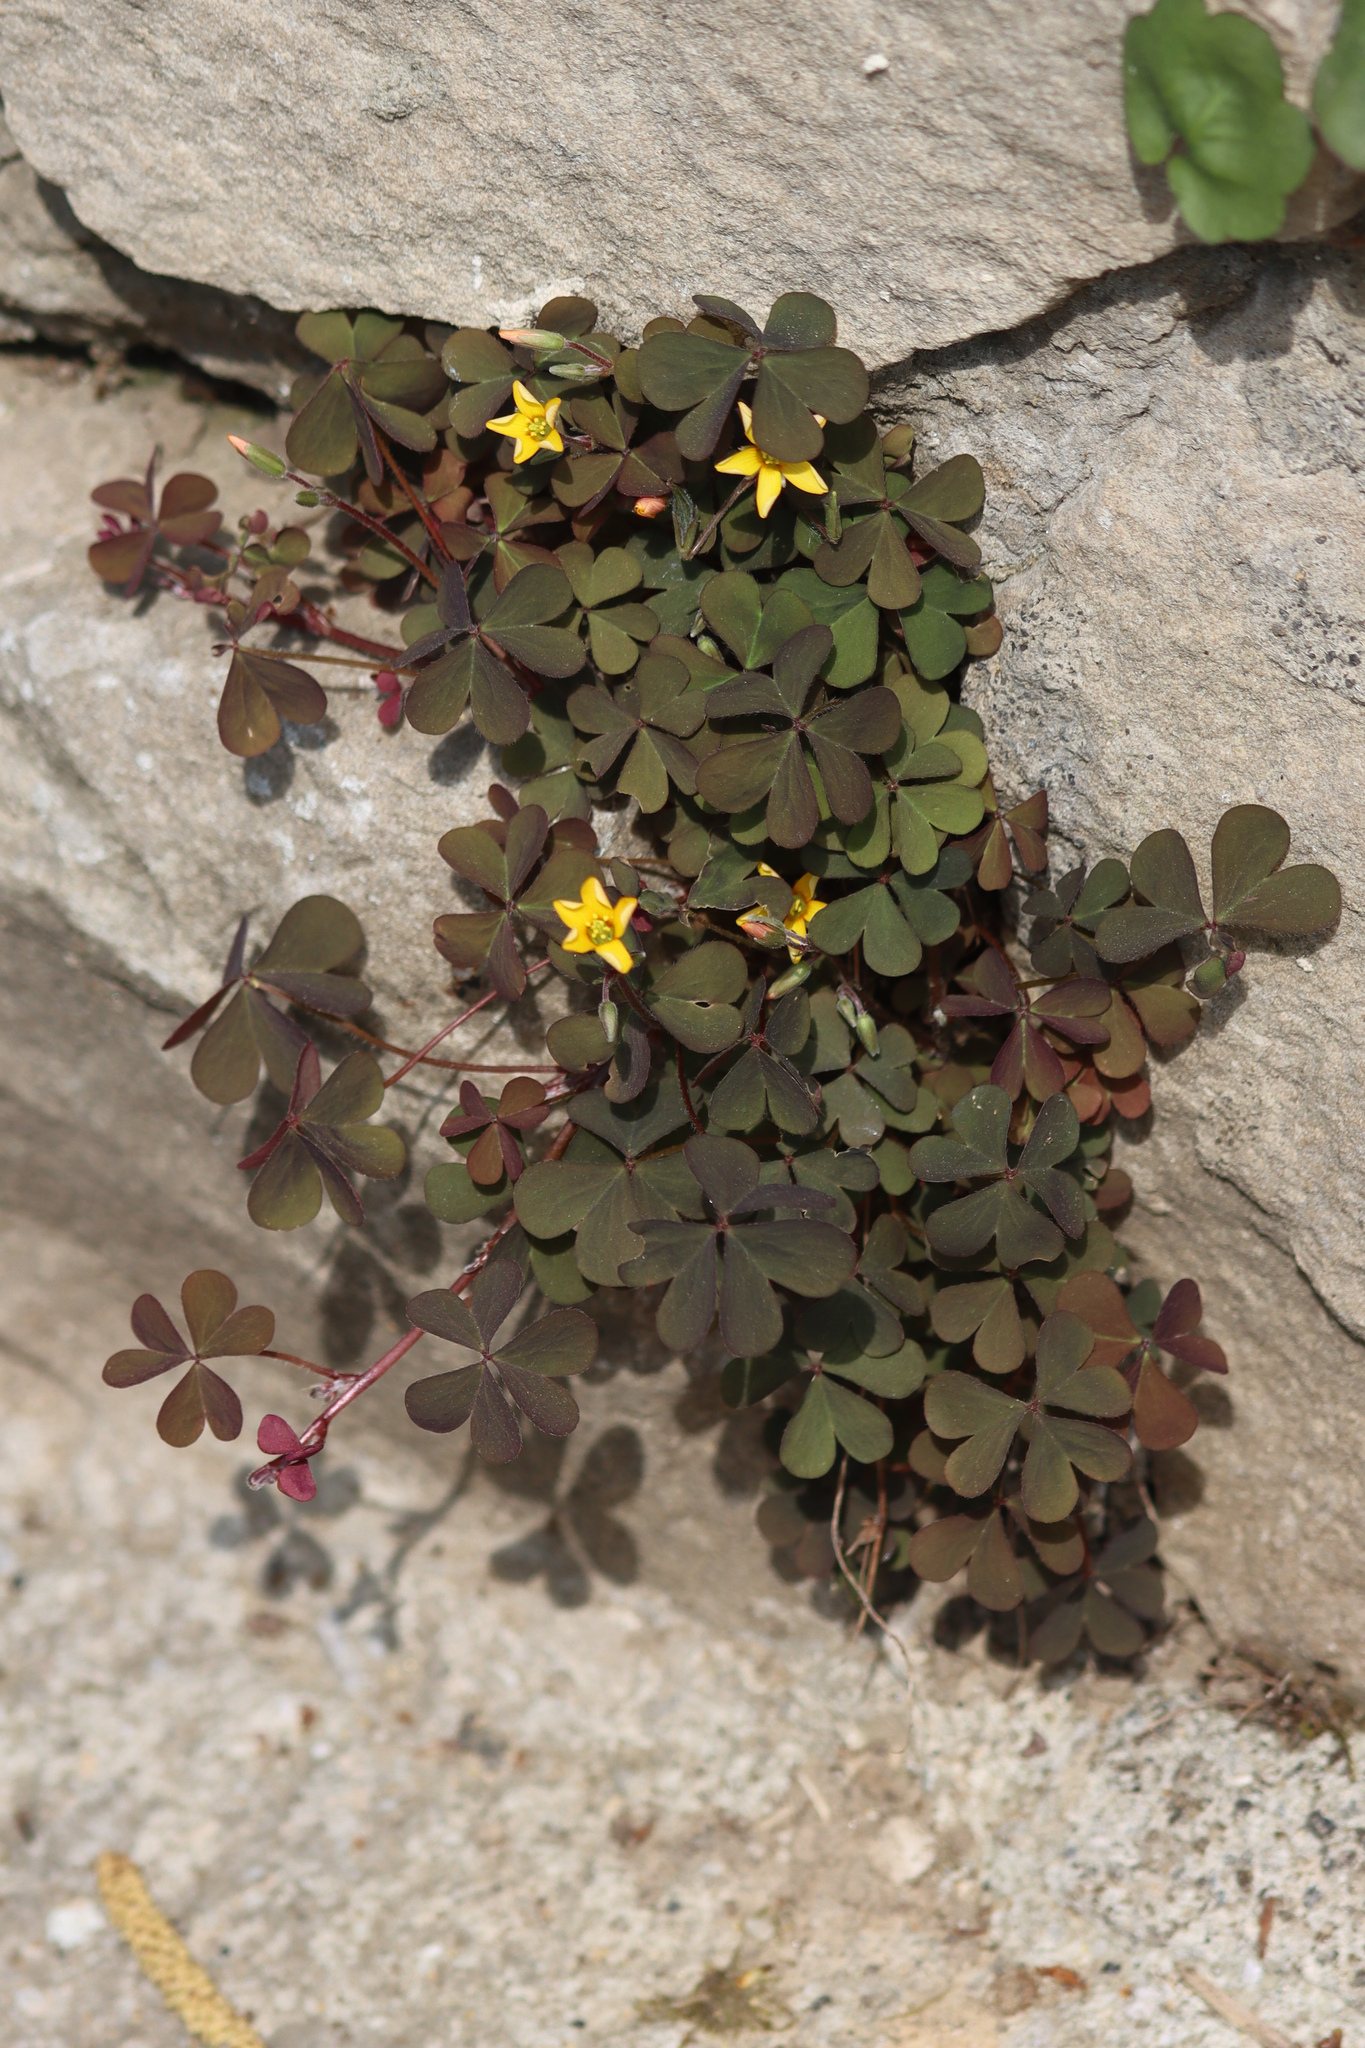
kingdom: Plantae
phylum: Tracheophyta
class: Magnoliopsida
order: Oxalidales
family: Oxalidaceae
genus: Oxalis
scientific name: Oxalis corniculata
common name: Procumbent yellow-sorrel
